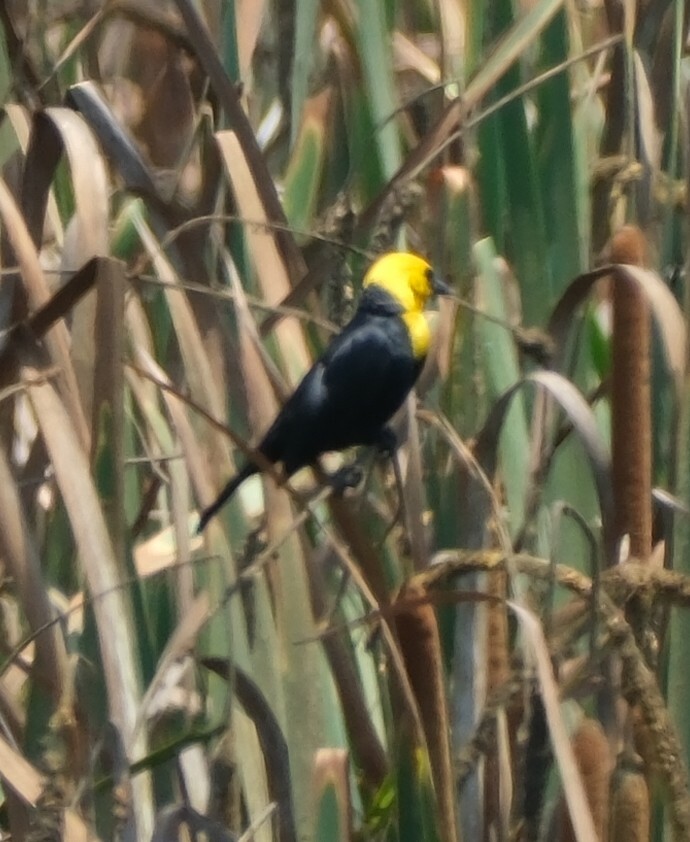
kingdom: Animalia
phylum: Chordata
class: Aves
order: Passeriformes
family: Icteridae
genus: Chrysomus
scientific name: Chrysomus icterocephalus
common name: Yellow-hooded blackbird
